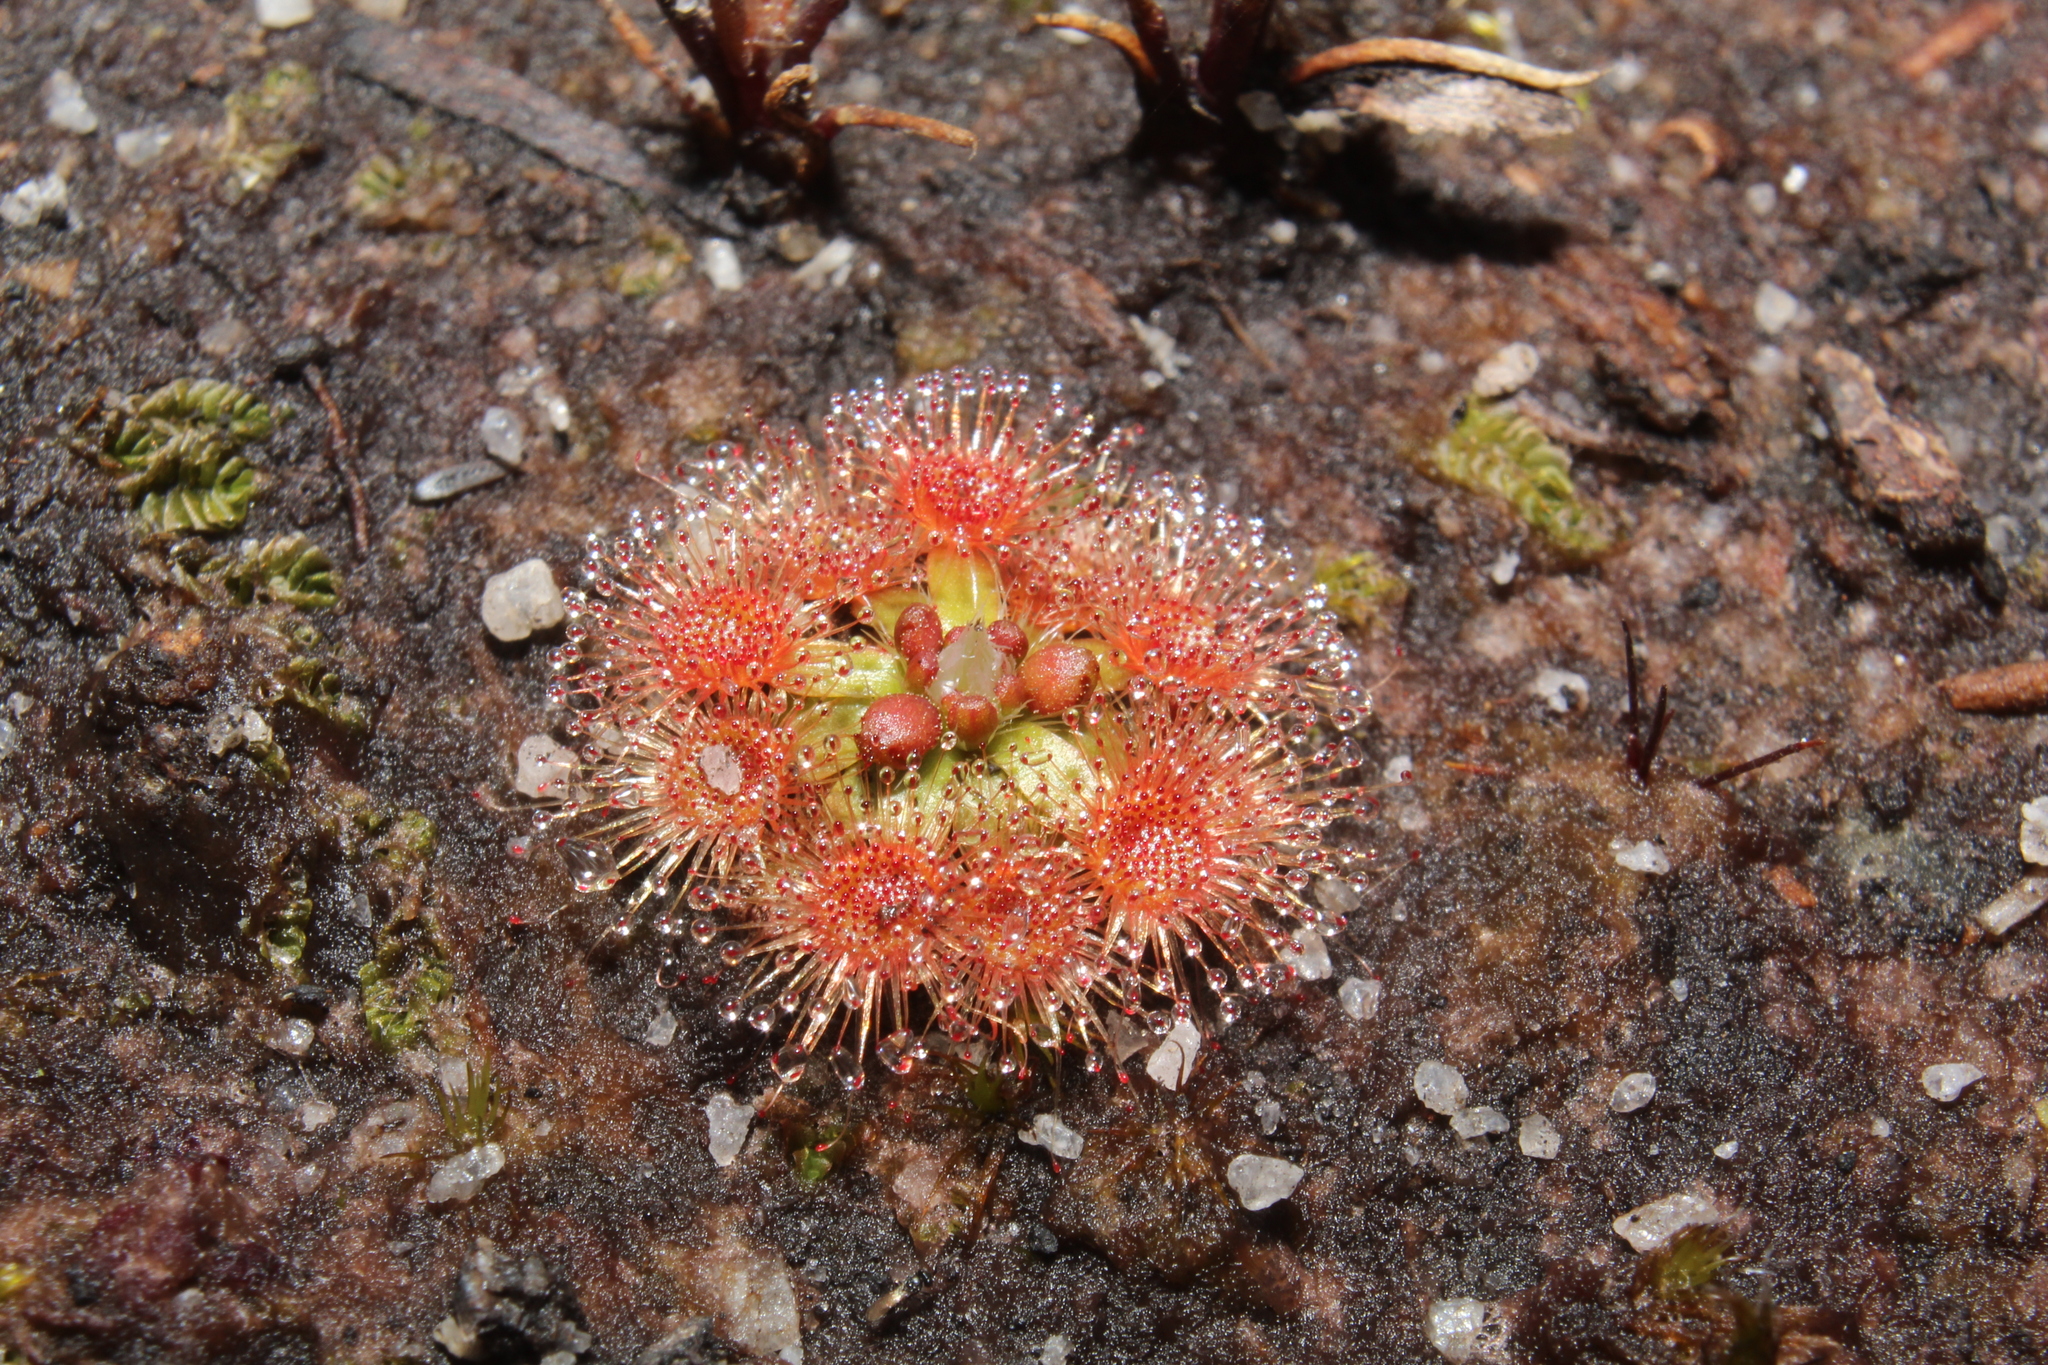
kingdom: Plantae
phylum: Tracheophyta
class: Magnoliopsida
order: Caryophyllales
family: Droseraceae
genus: Drosera
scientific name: Drosera pulchella
